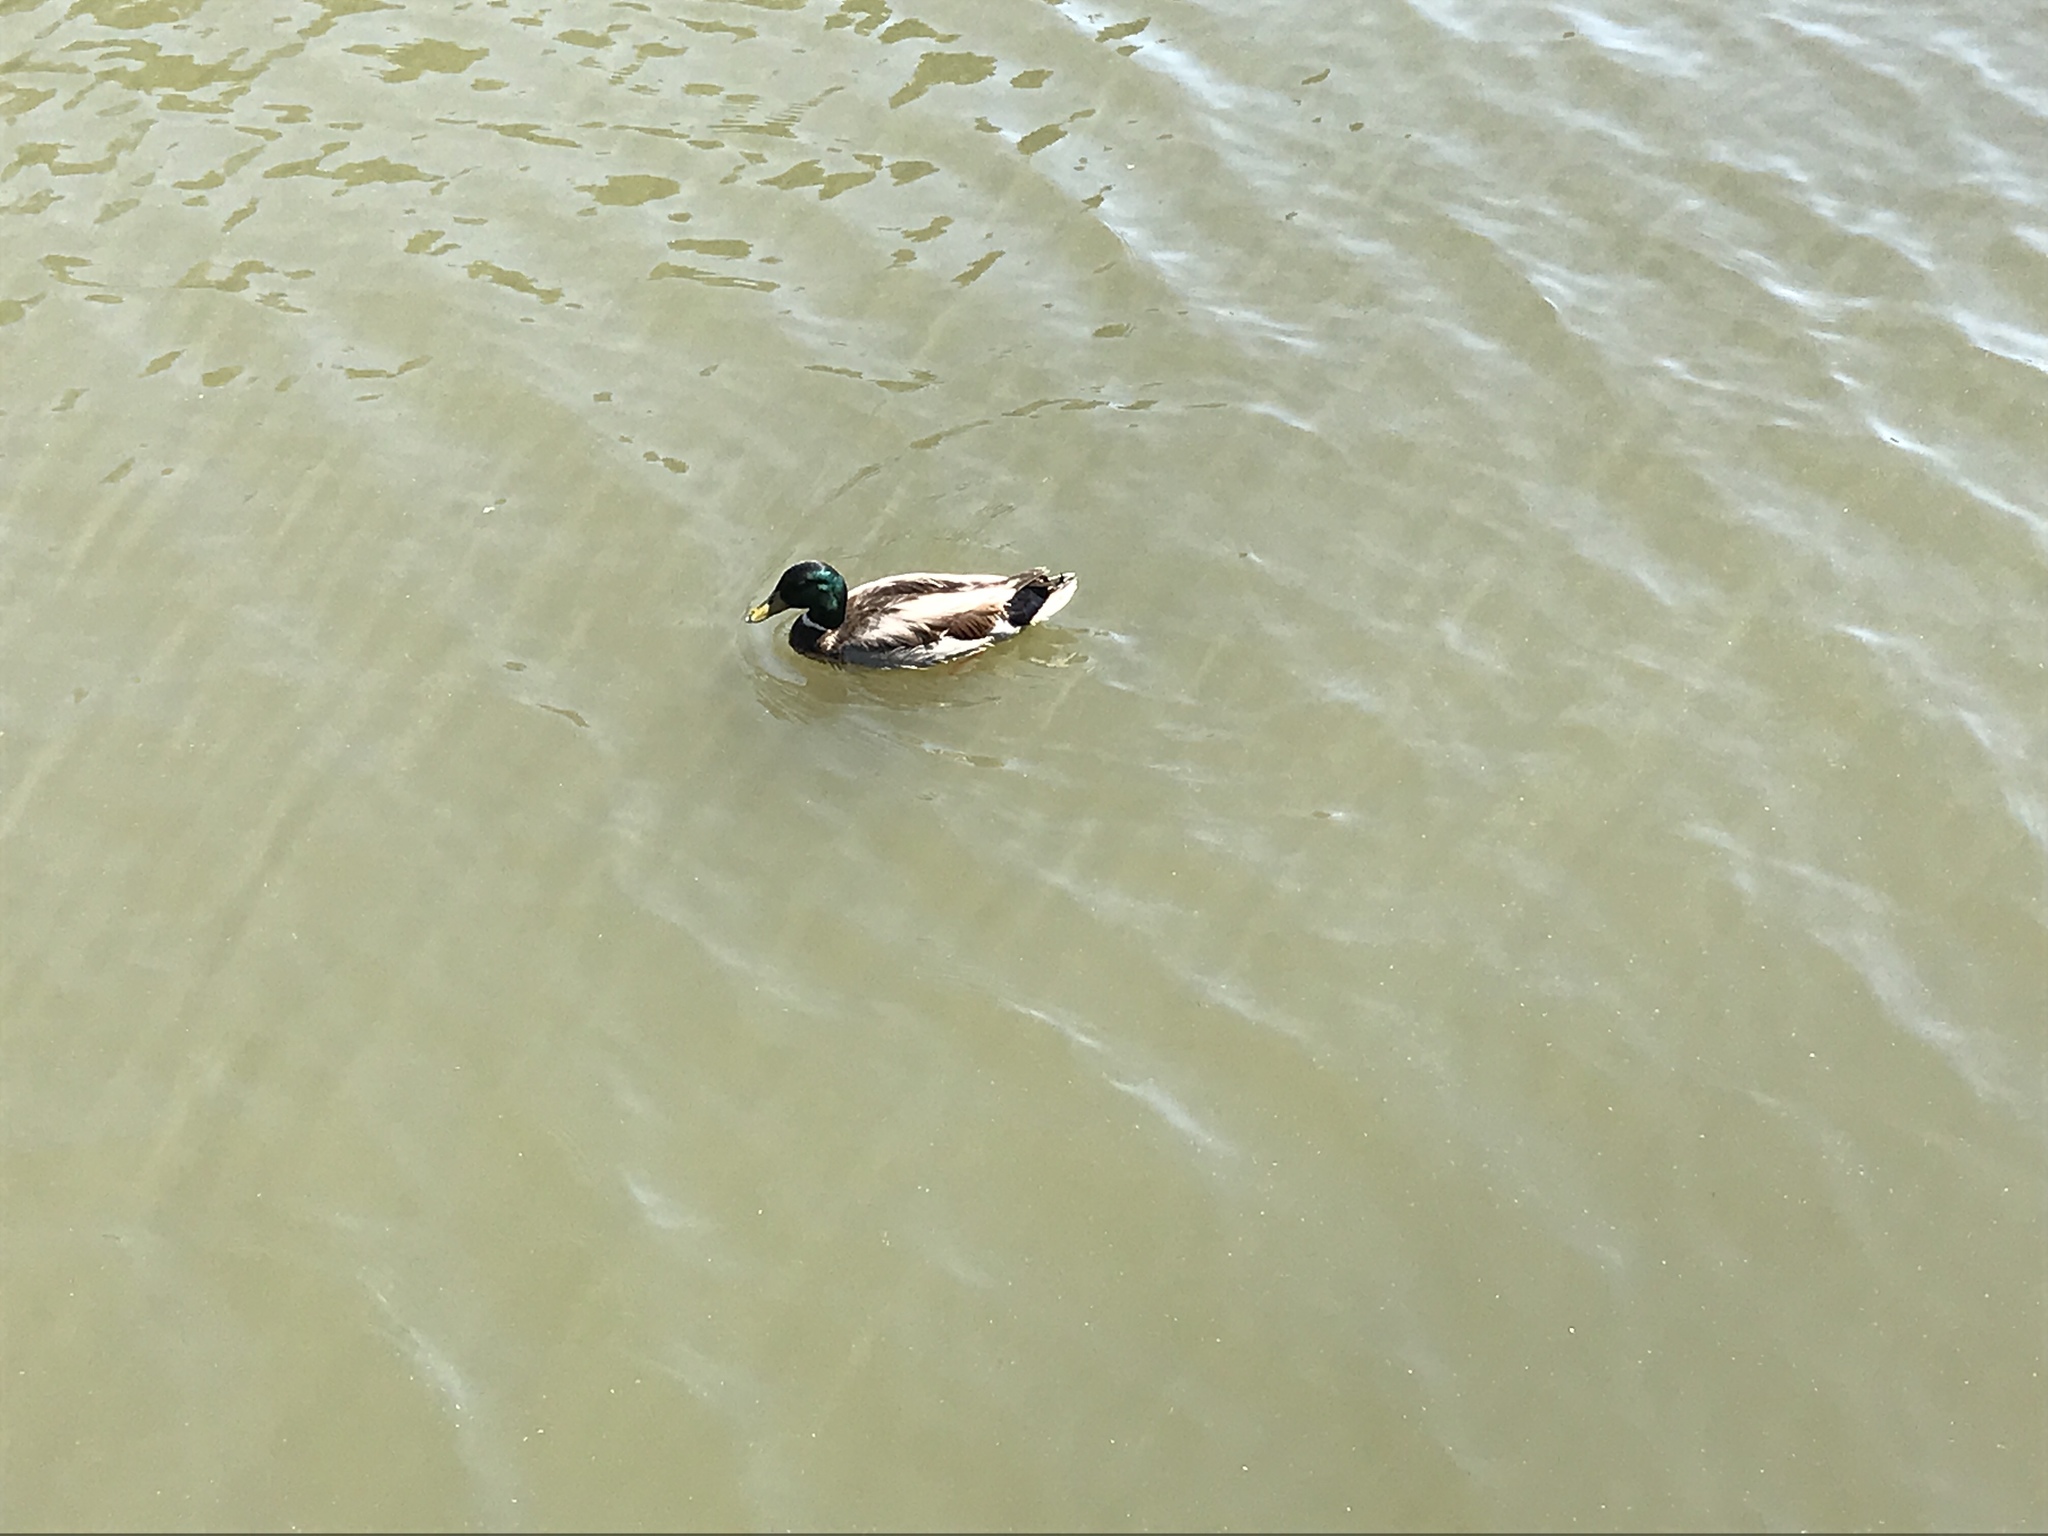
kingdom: Animalia
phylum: Chordata
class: Aves
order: Anseriformes
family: Anatidae
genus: Anas
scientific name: Anas platyrhynchos
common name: Mallard
